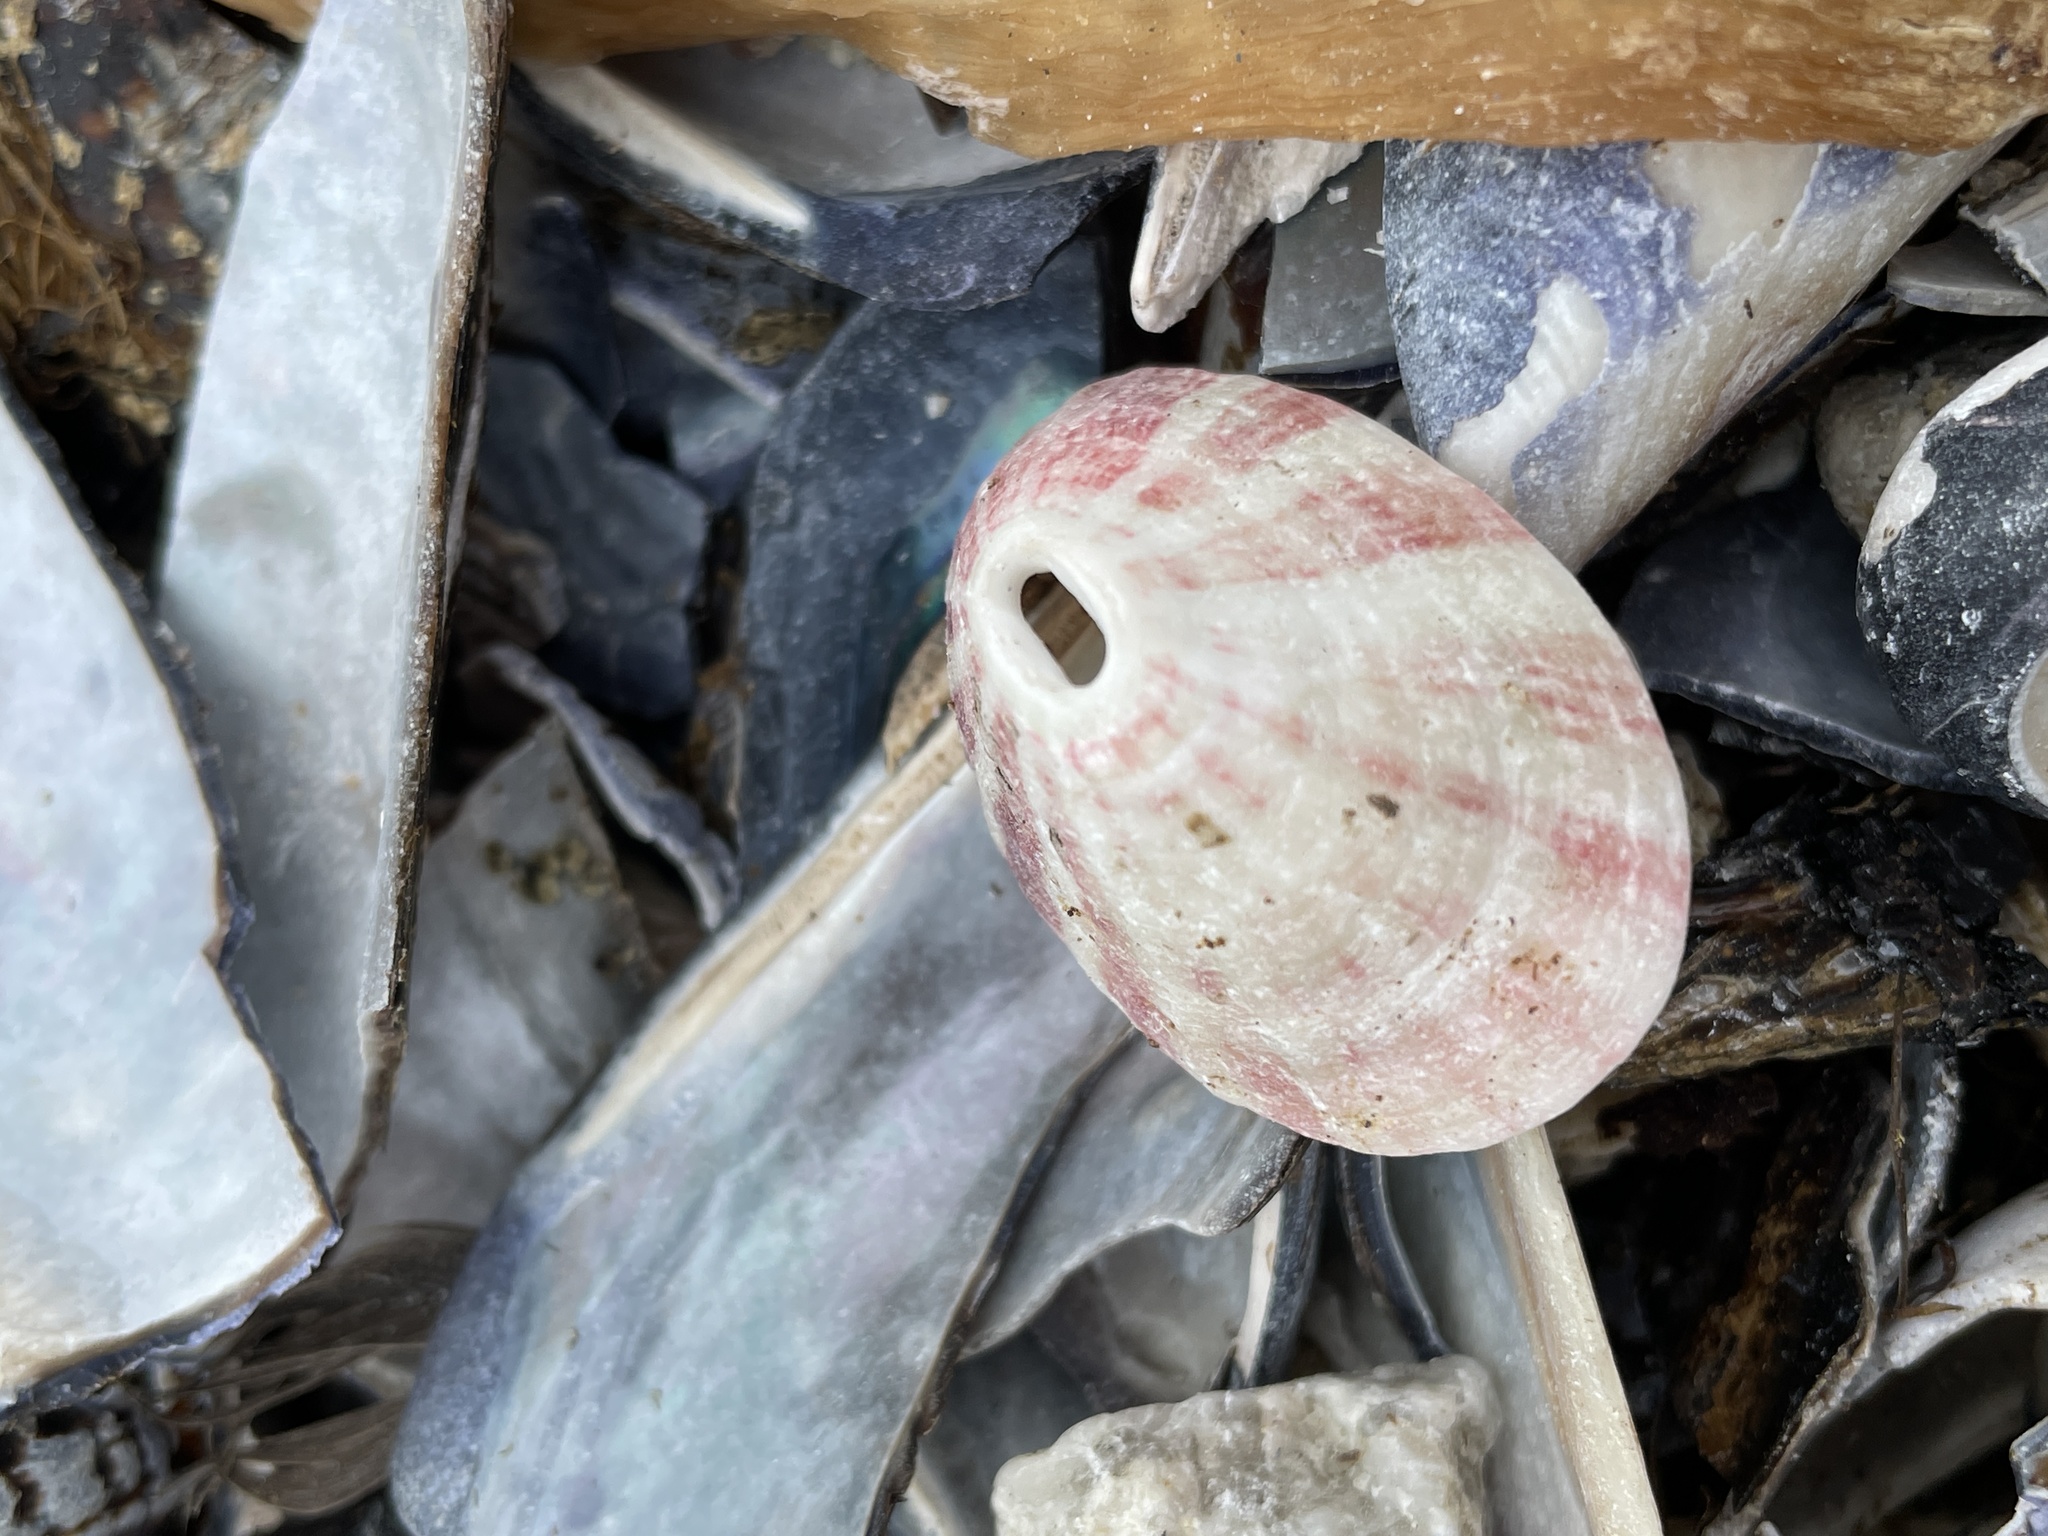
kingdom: Animalia
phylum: Mollusca
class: Gastropoda
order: Lepetellida
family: Fissurellidae
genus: Fissurella
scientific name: Fissurella volcano
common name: Volcano keyhole limpet
